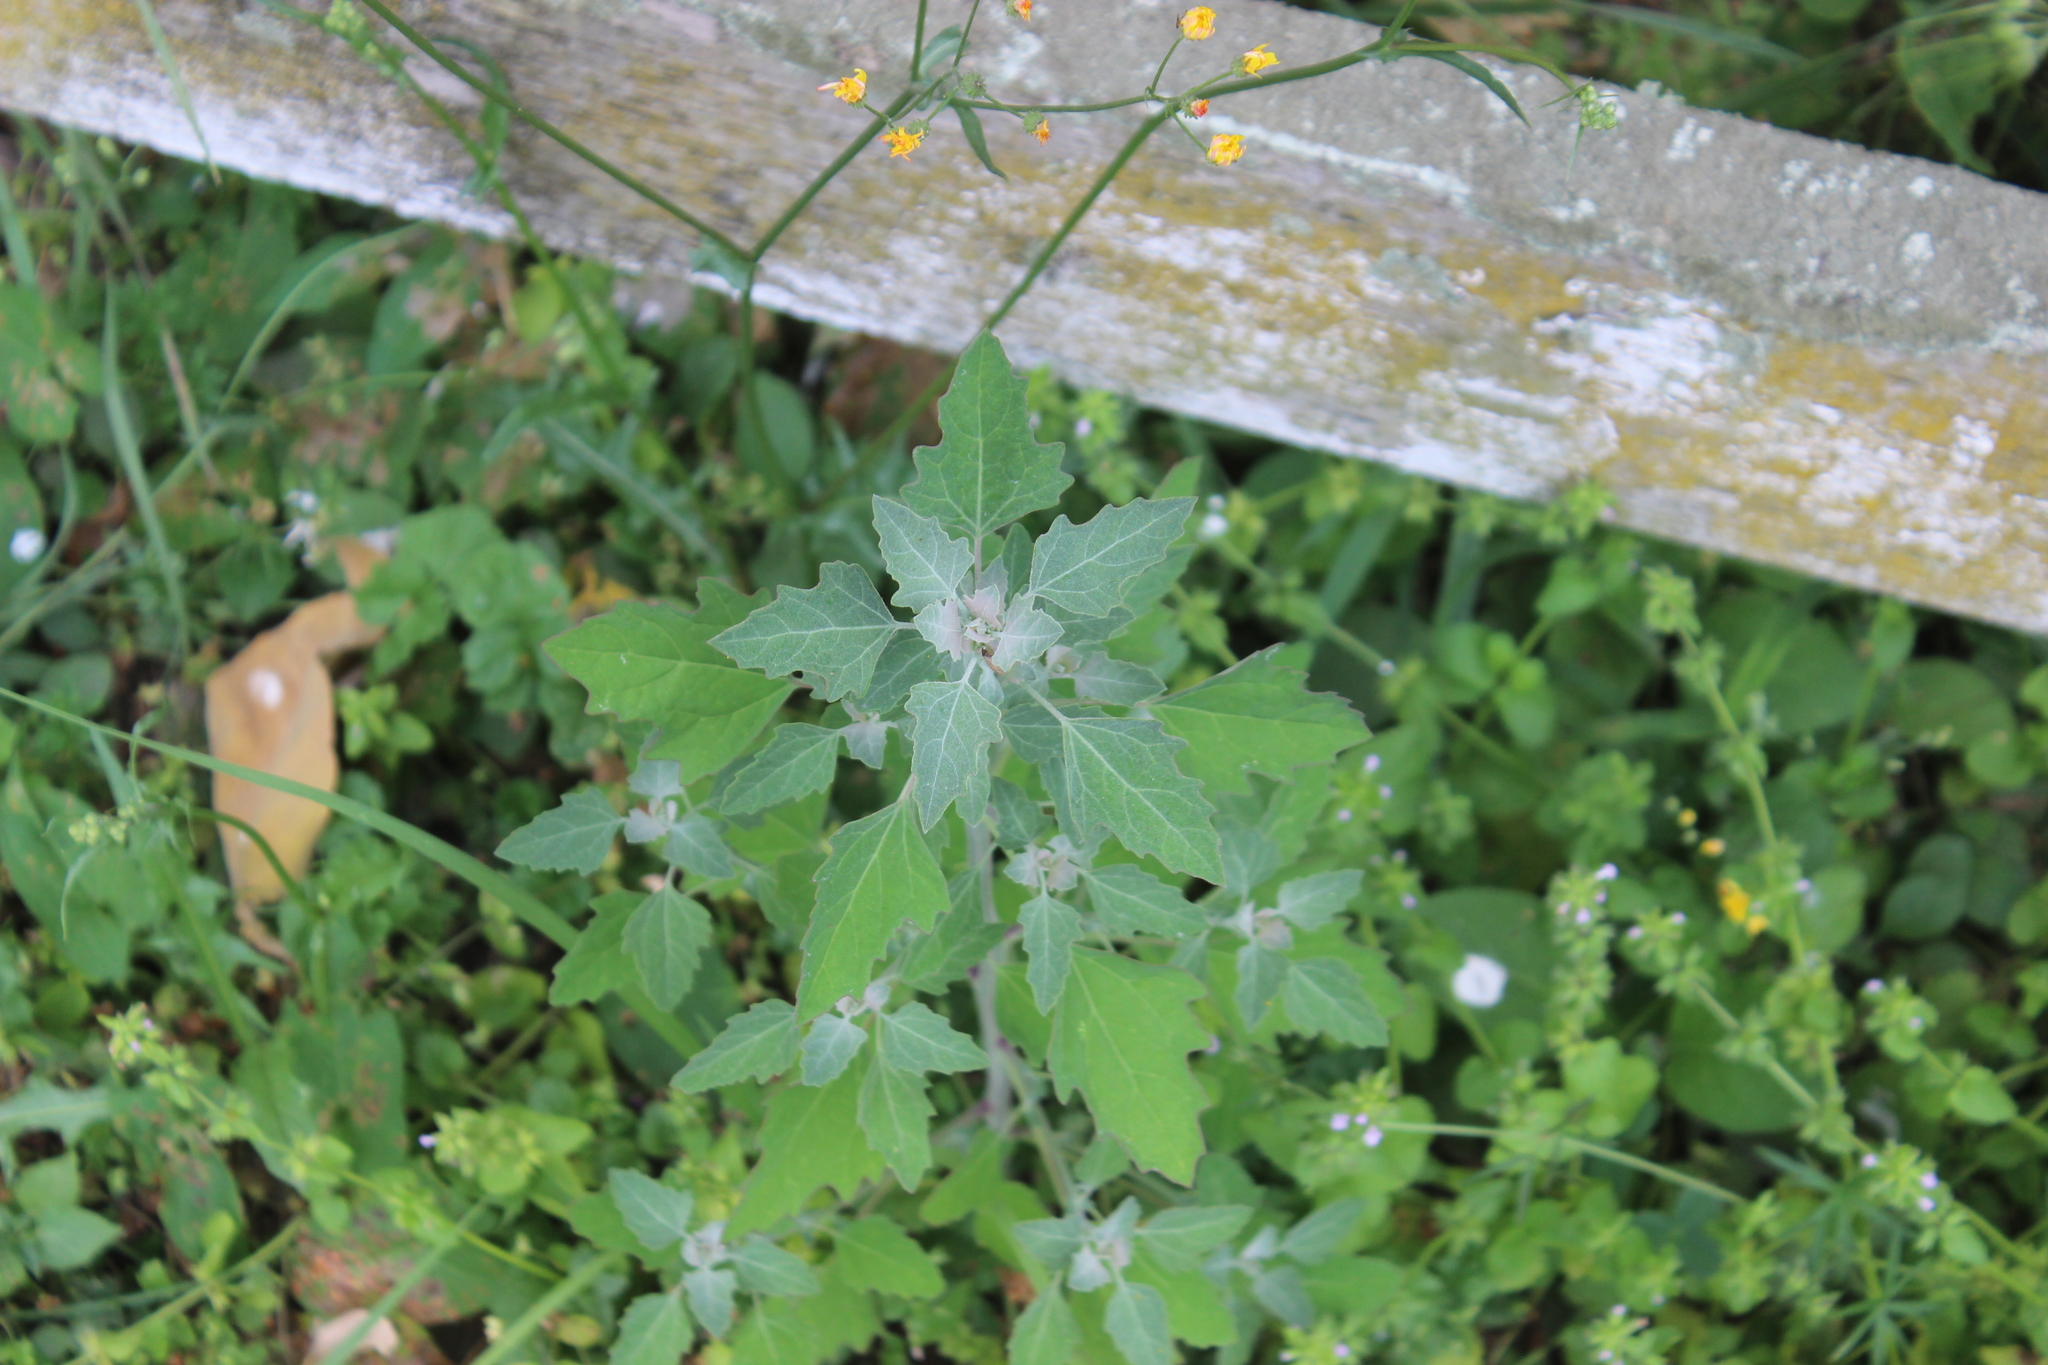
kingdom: Plantae
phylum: Tracheophyta
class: Magnoliopsida
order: Caryophyllales
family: Amaranthaceae
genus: Chenopodium
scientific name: Chenopodium album
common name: Fat-hen
